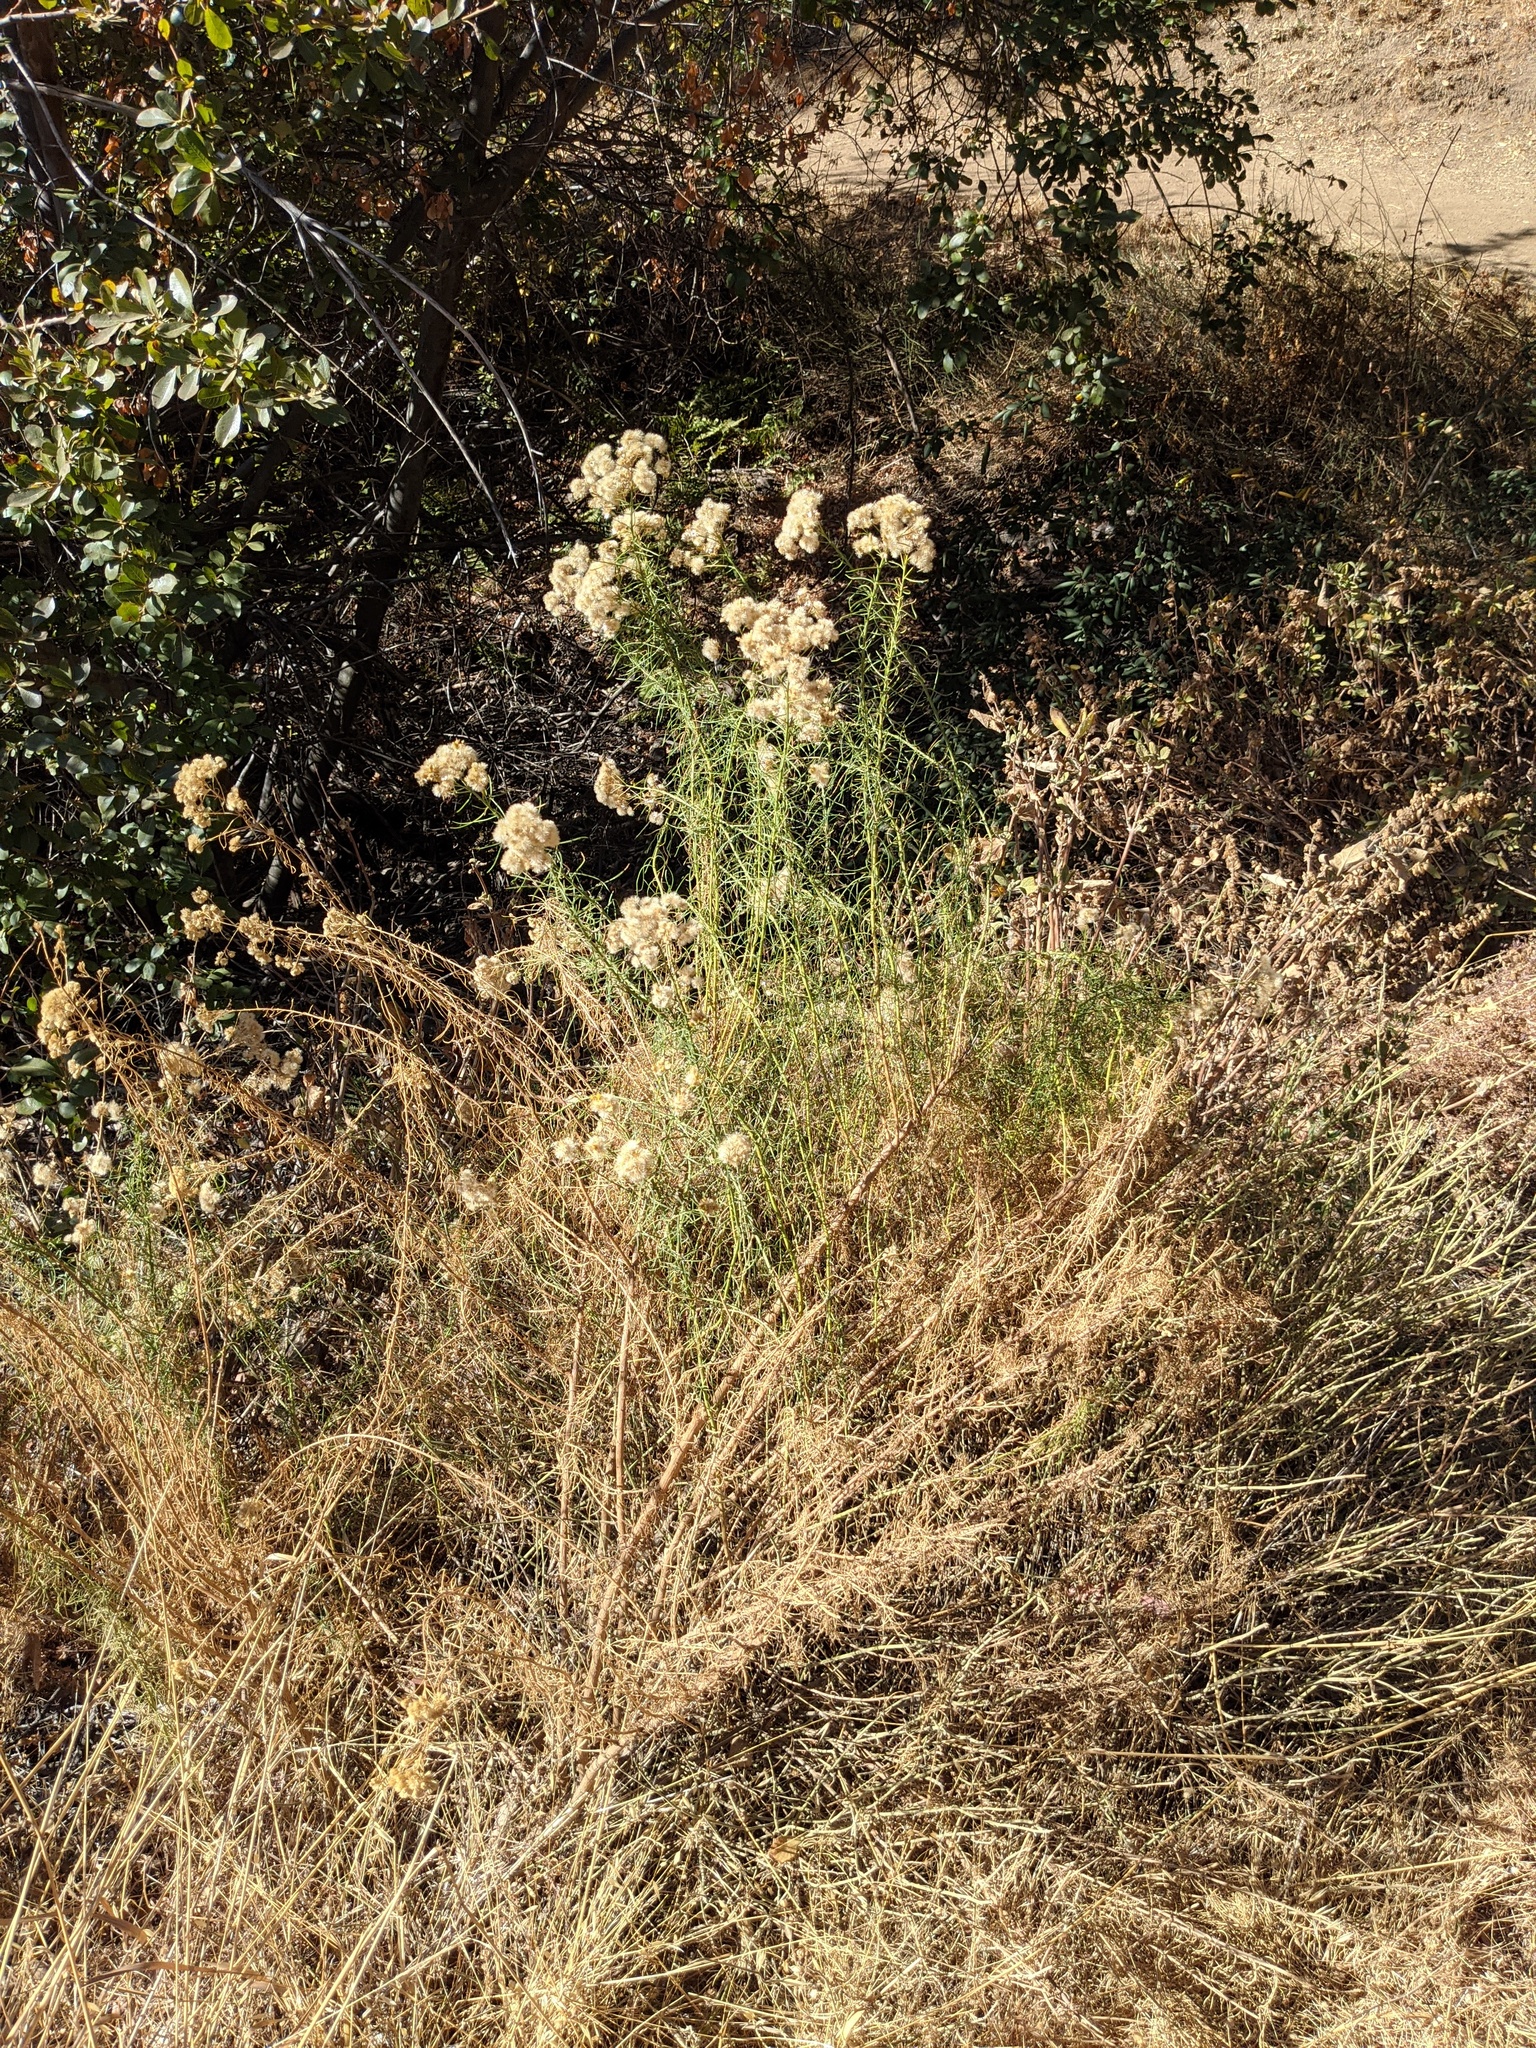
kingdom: Plantae
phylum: Tracheophyta
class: Magnoliopsida
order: Asterales
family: Asteraceae
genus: Ericameria
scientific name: Ericameria arborescens
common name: Goldenfleece
